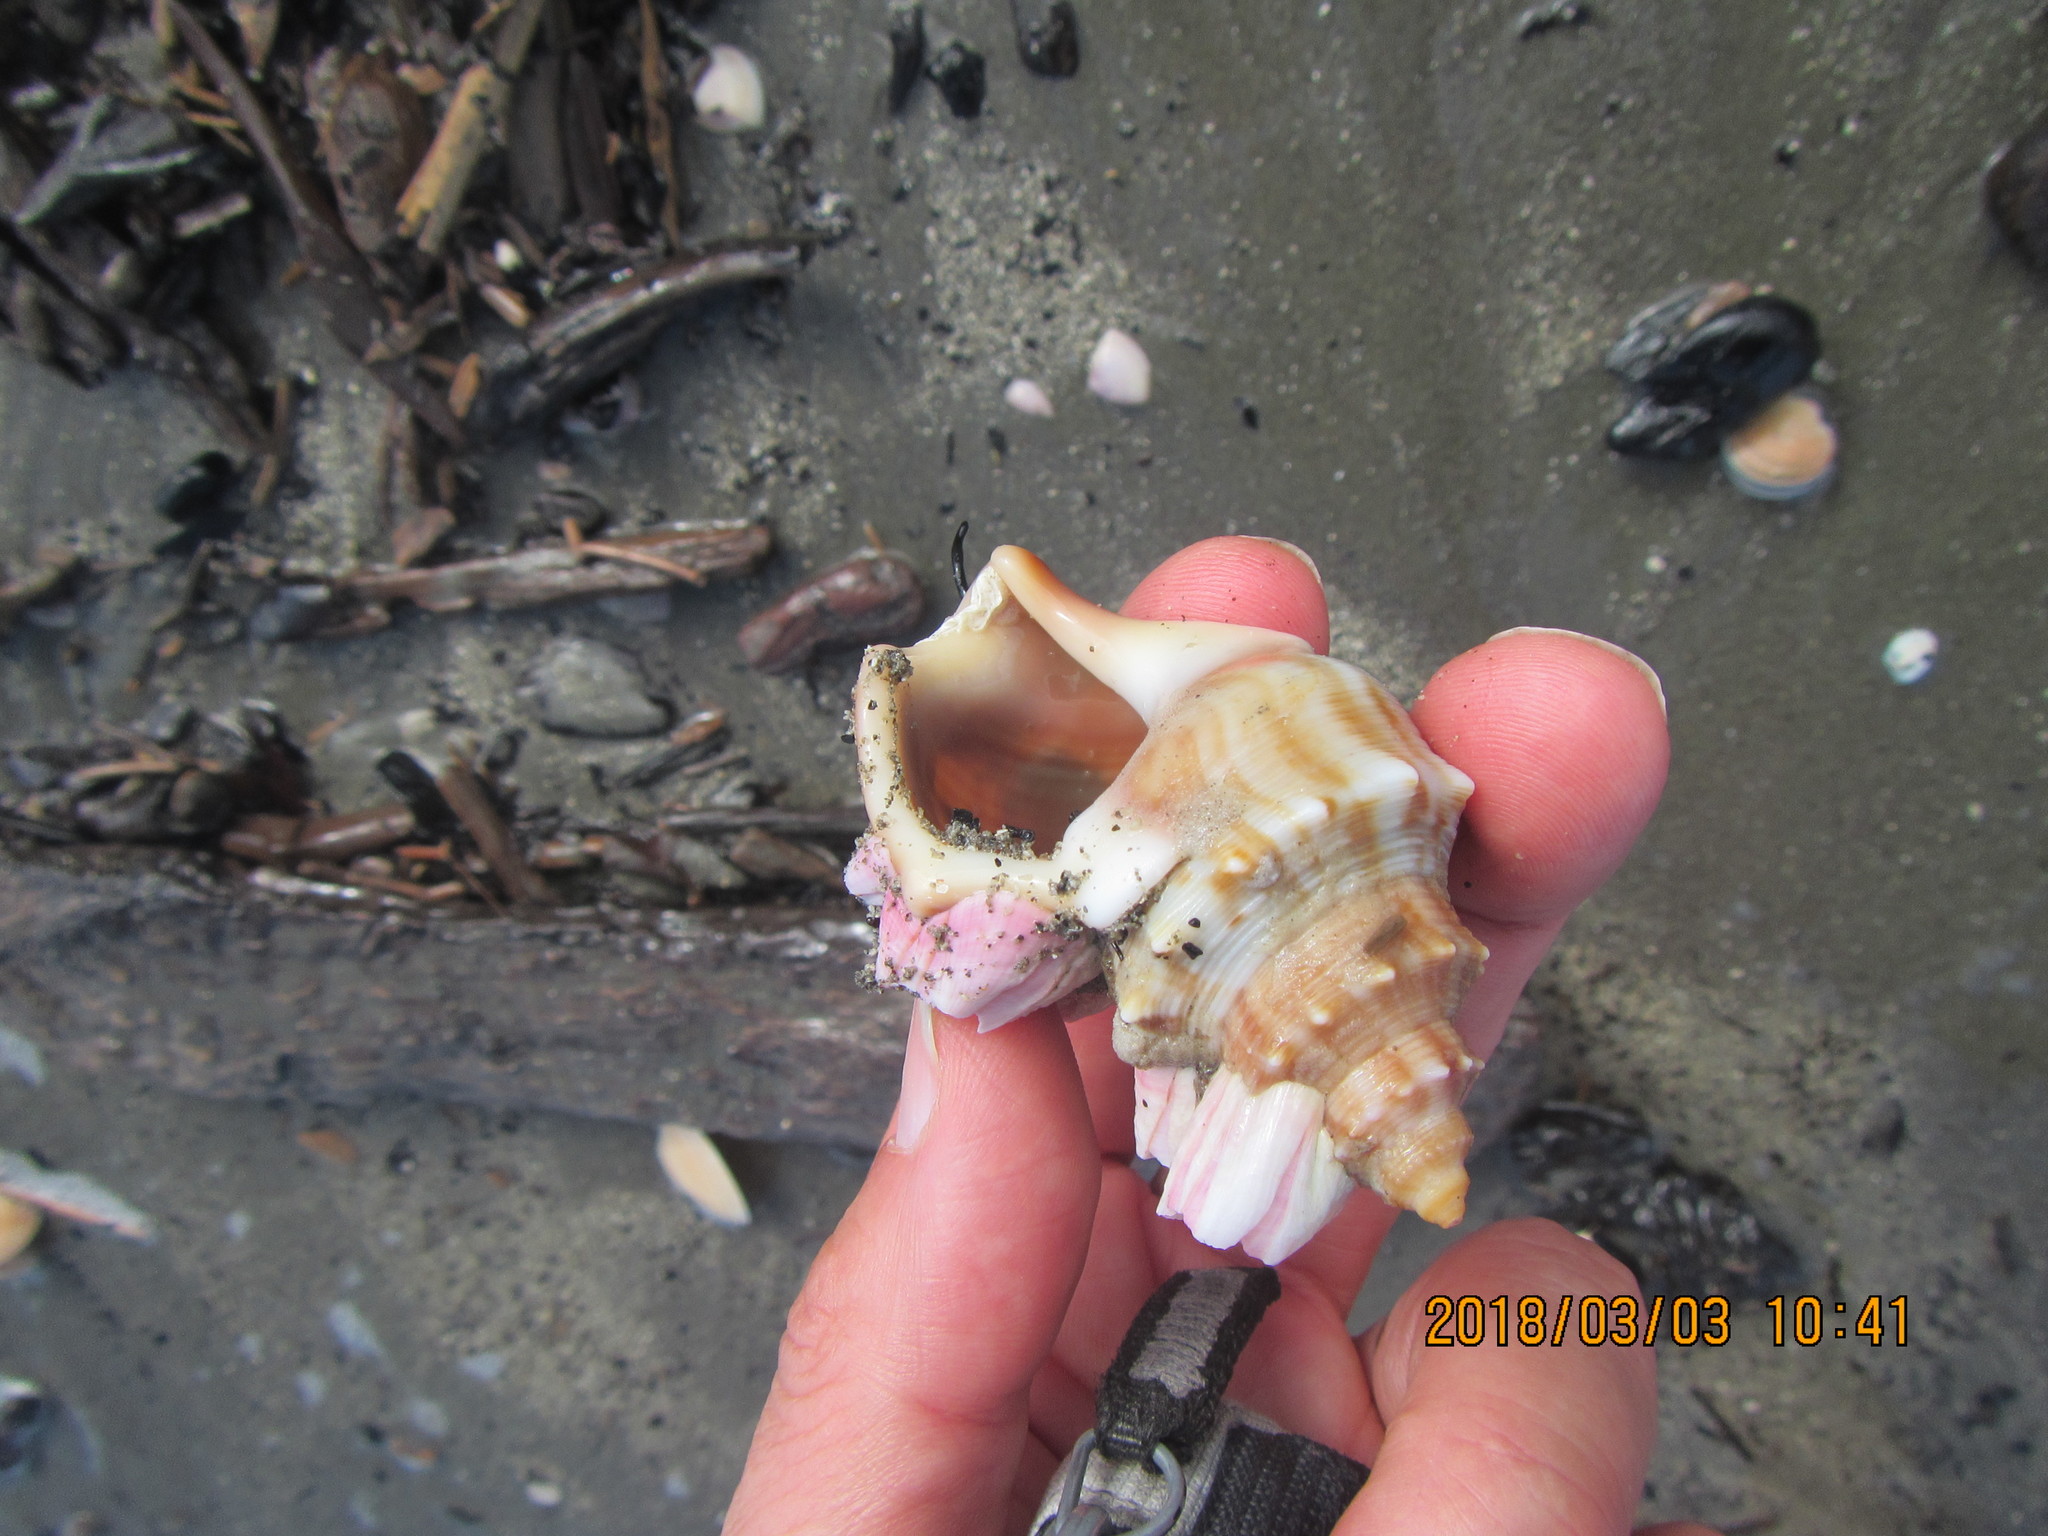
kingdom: Animalia
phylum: Mollusca
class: Gastropoda
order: Littorinimorpha
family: Struthiolariidae
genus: Struthiolaria
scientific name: Struthiolaria papulosa
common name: Large ostrich foot
